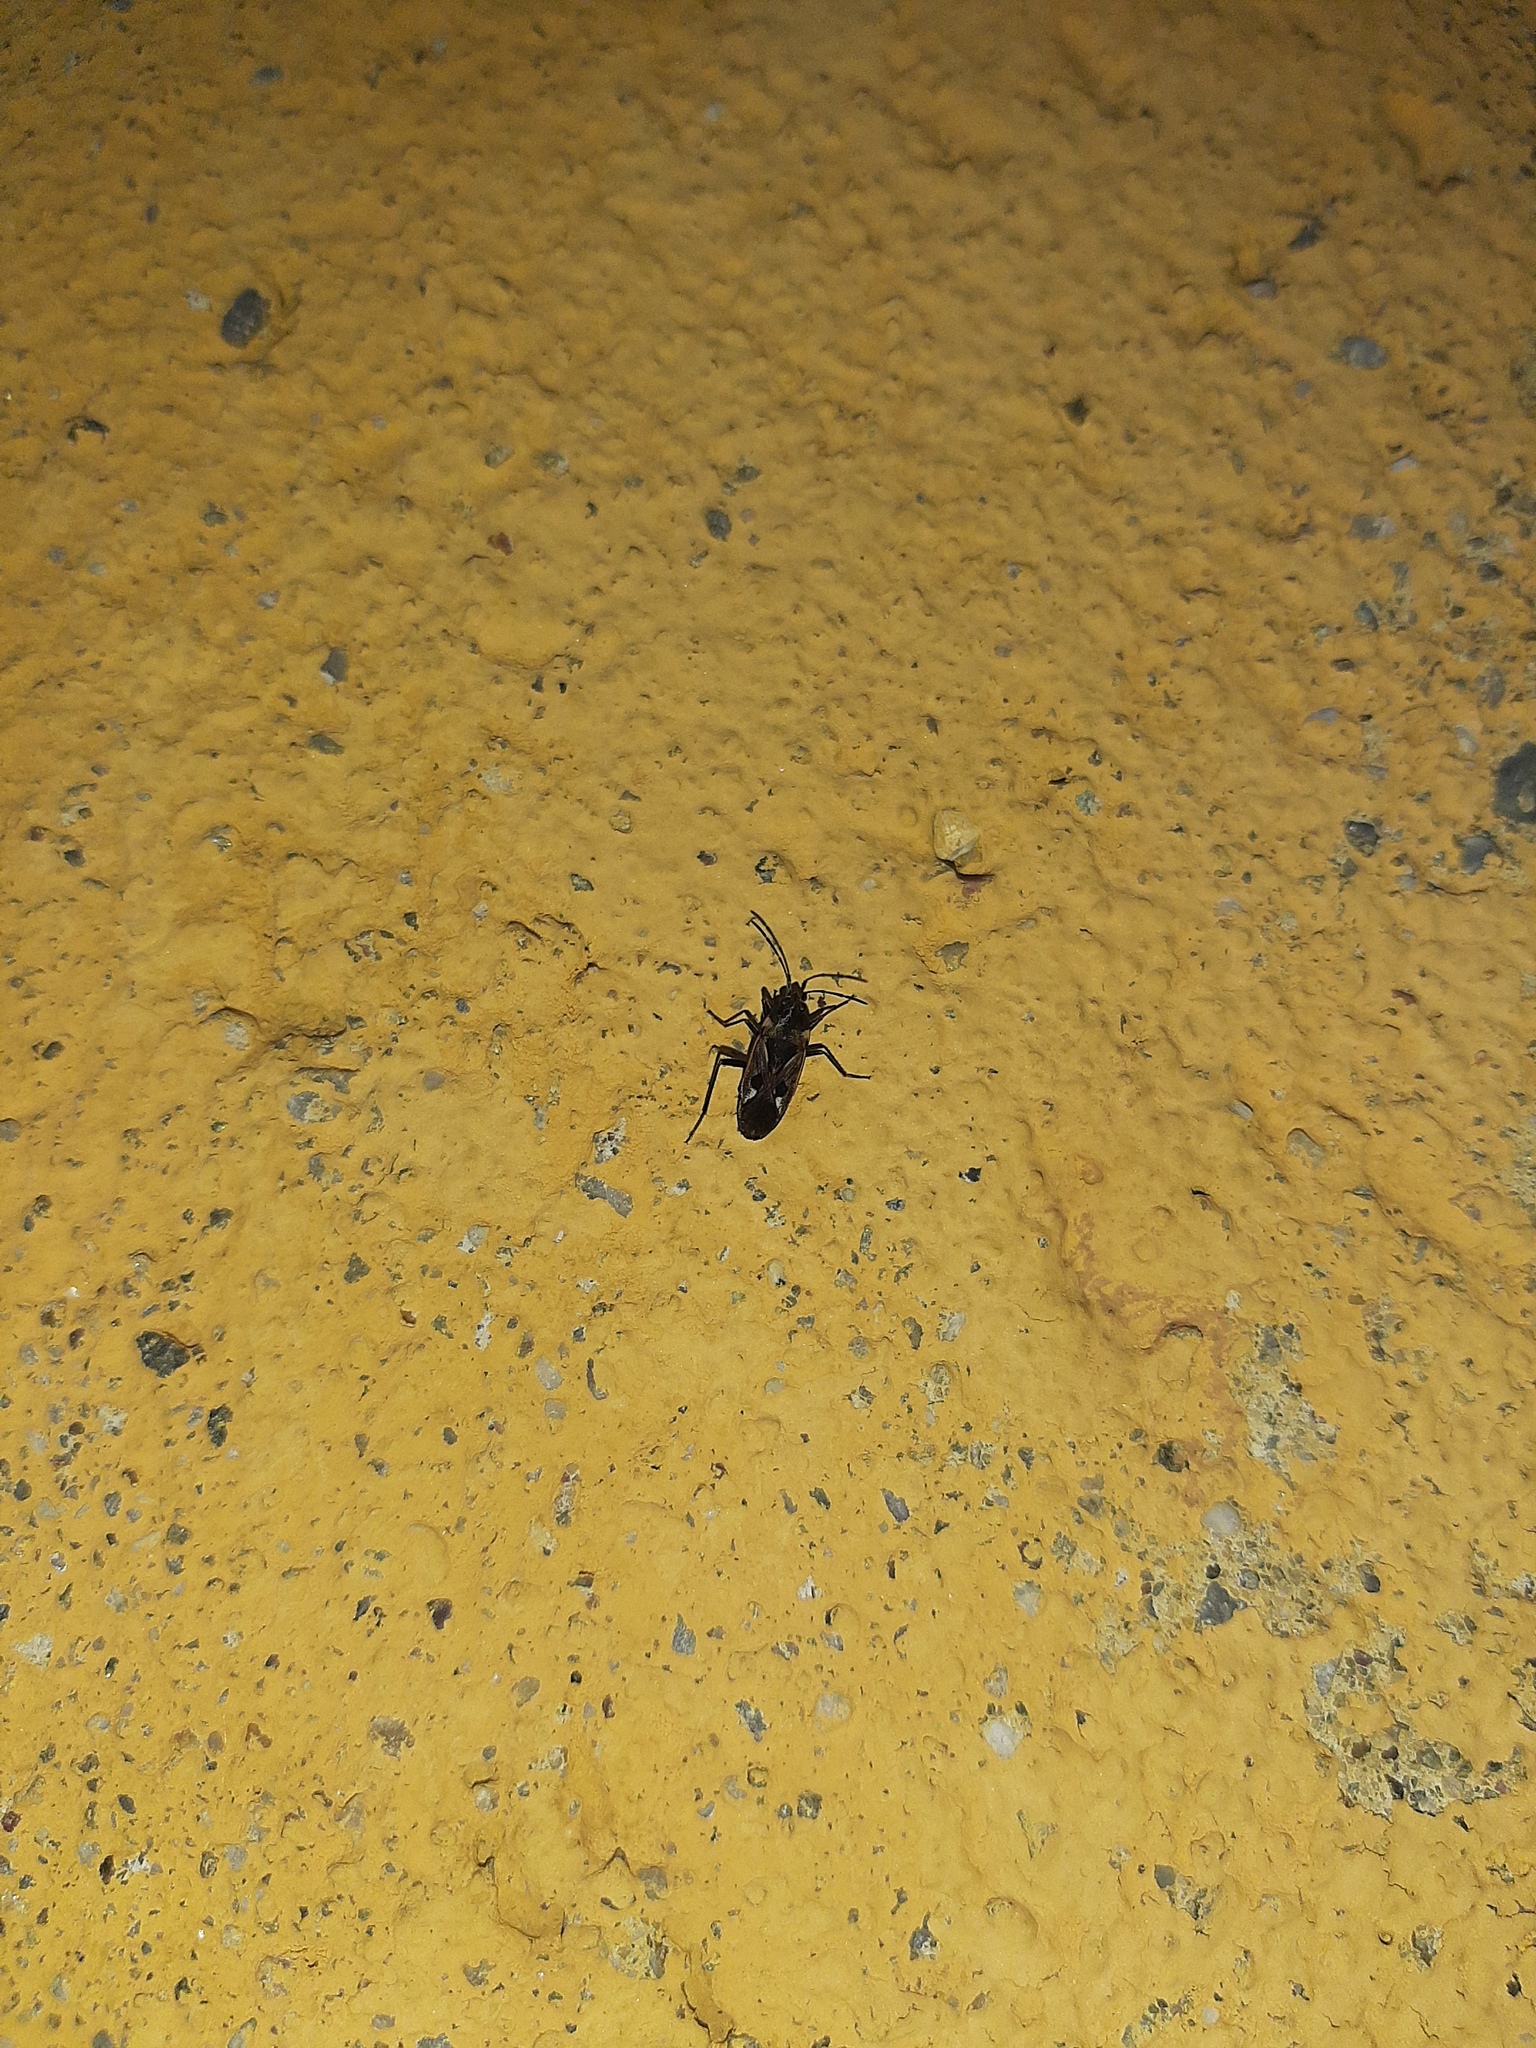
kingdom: Animalia
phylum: Arthropoda
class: Insecta
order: Hemiptera
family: Rhyparochromidae
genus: Rhyparochromus
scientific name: Rhyparochromus vulgaris
